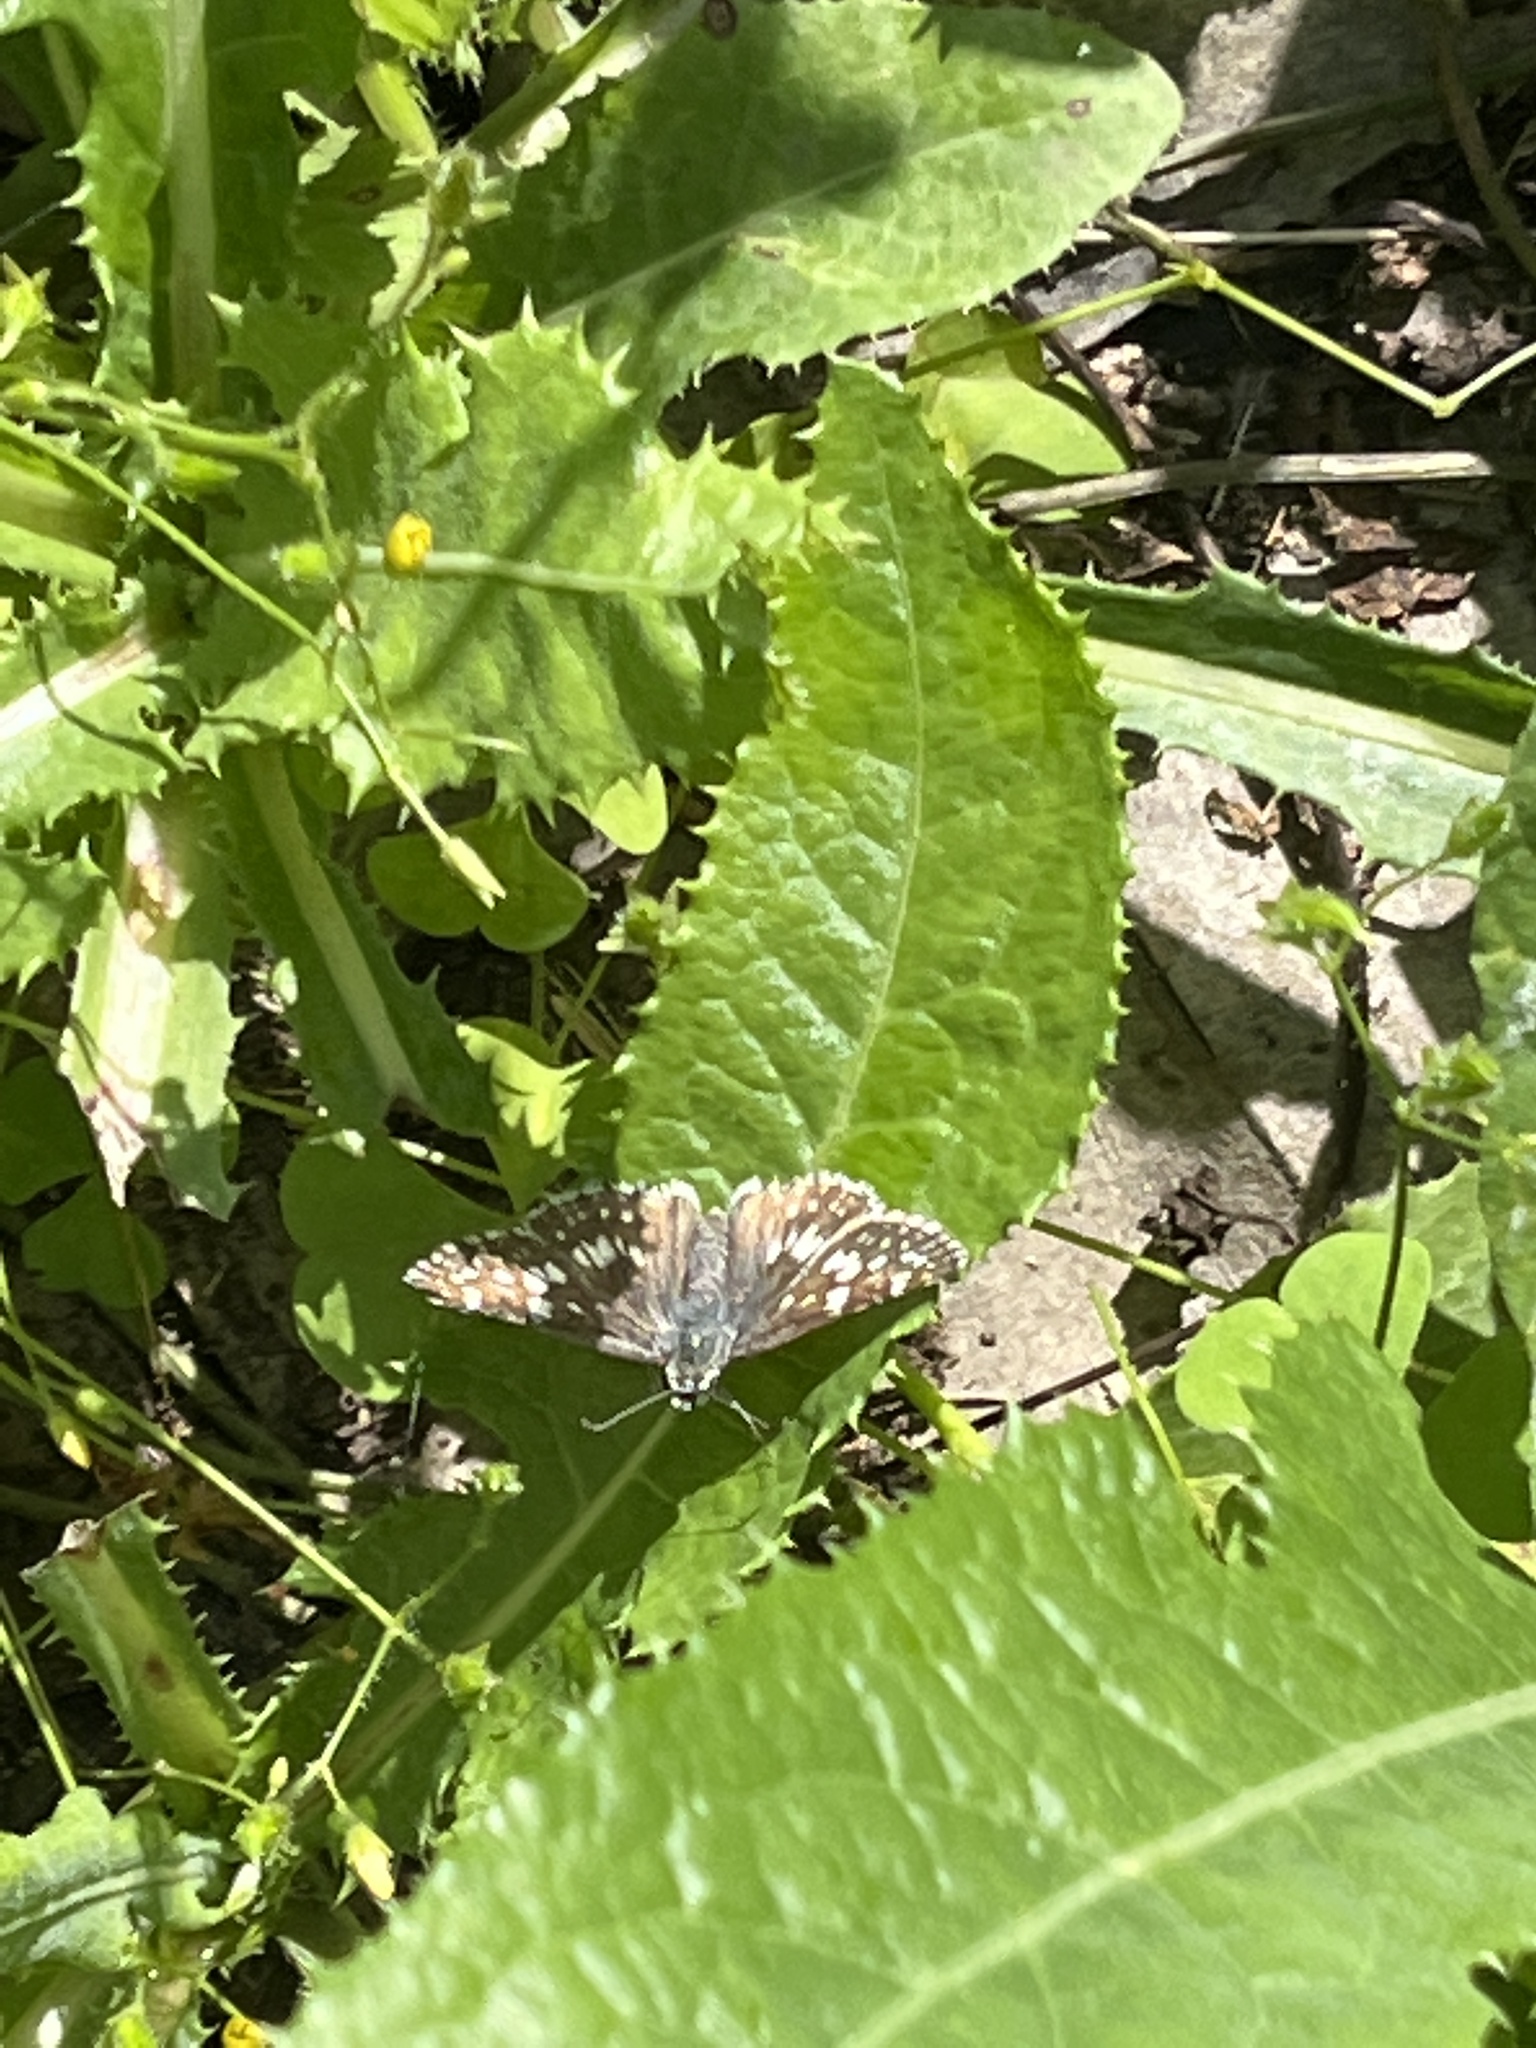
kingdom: Animalia
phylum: Arthropoda
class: Insecta
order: Lepidoptera
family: Hesperiidae
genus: Burnsius
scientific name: Burnsius communis
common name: Common checkered-skipper
